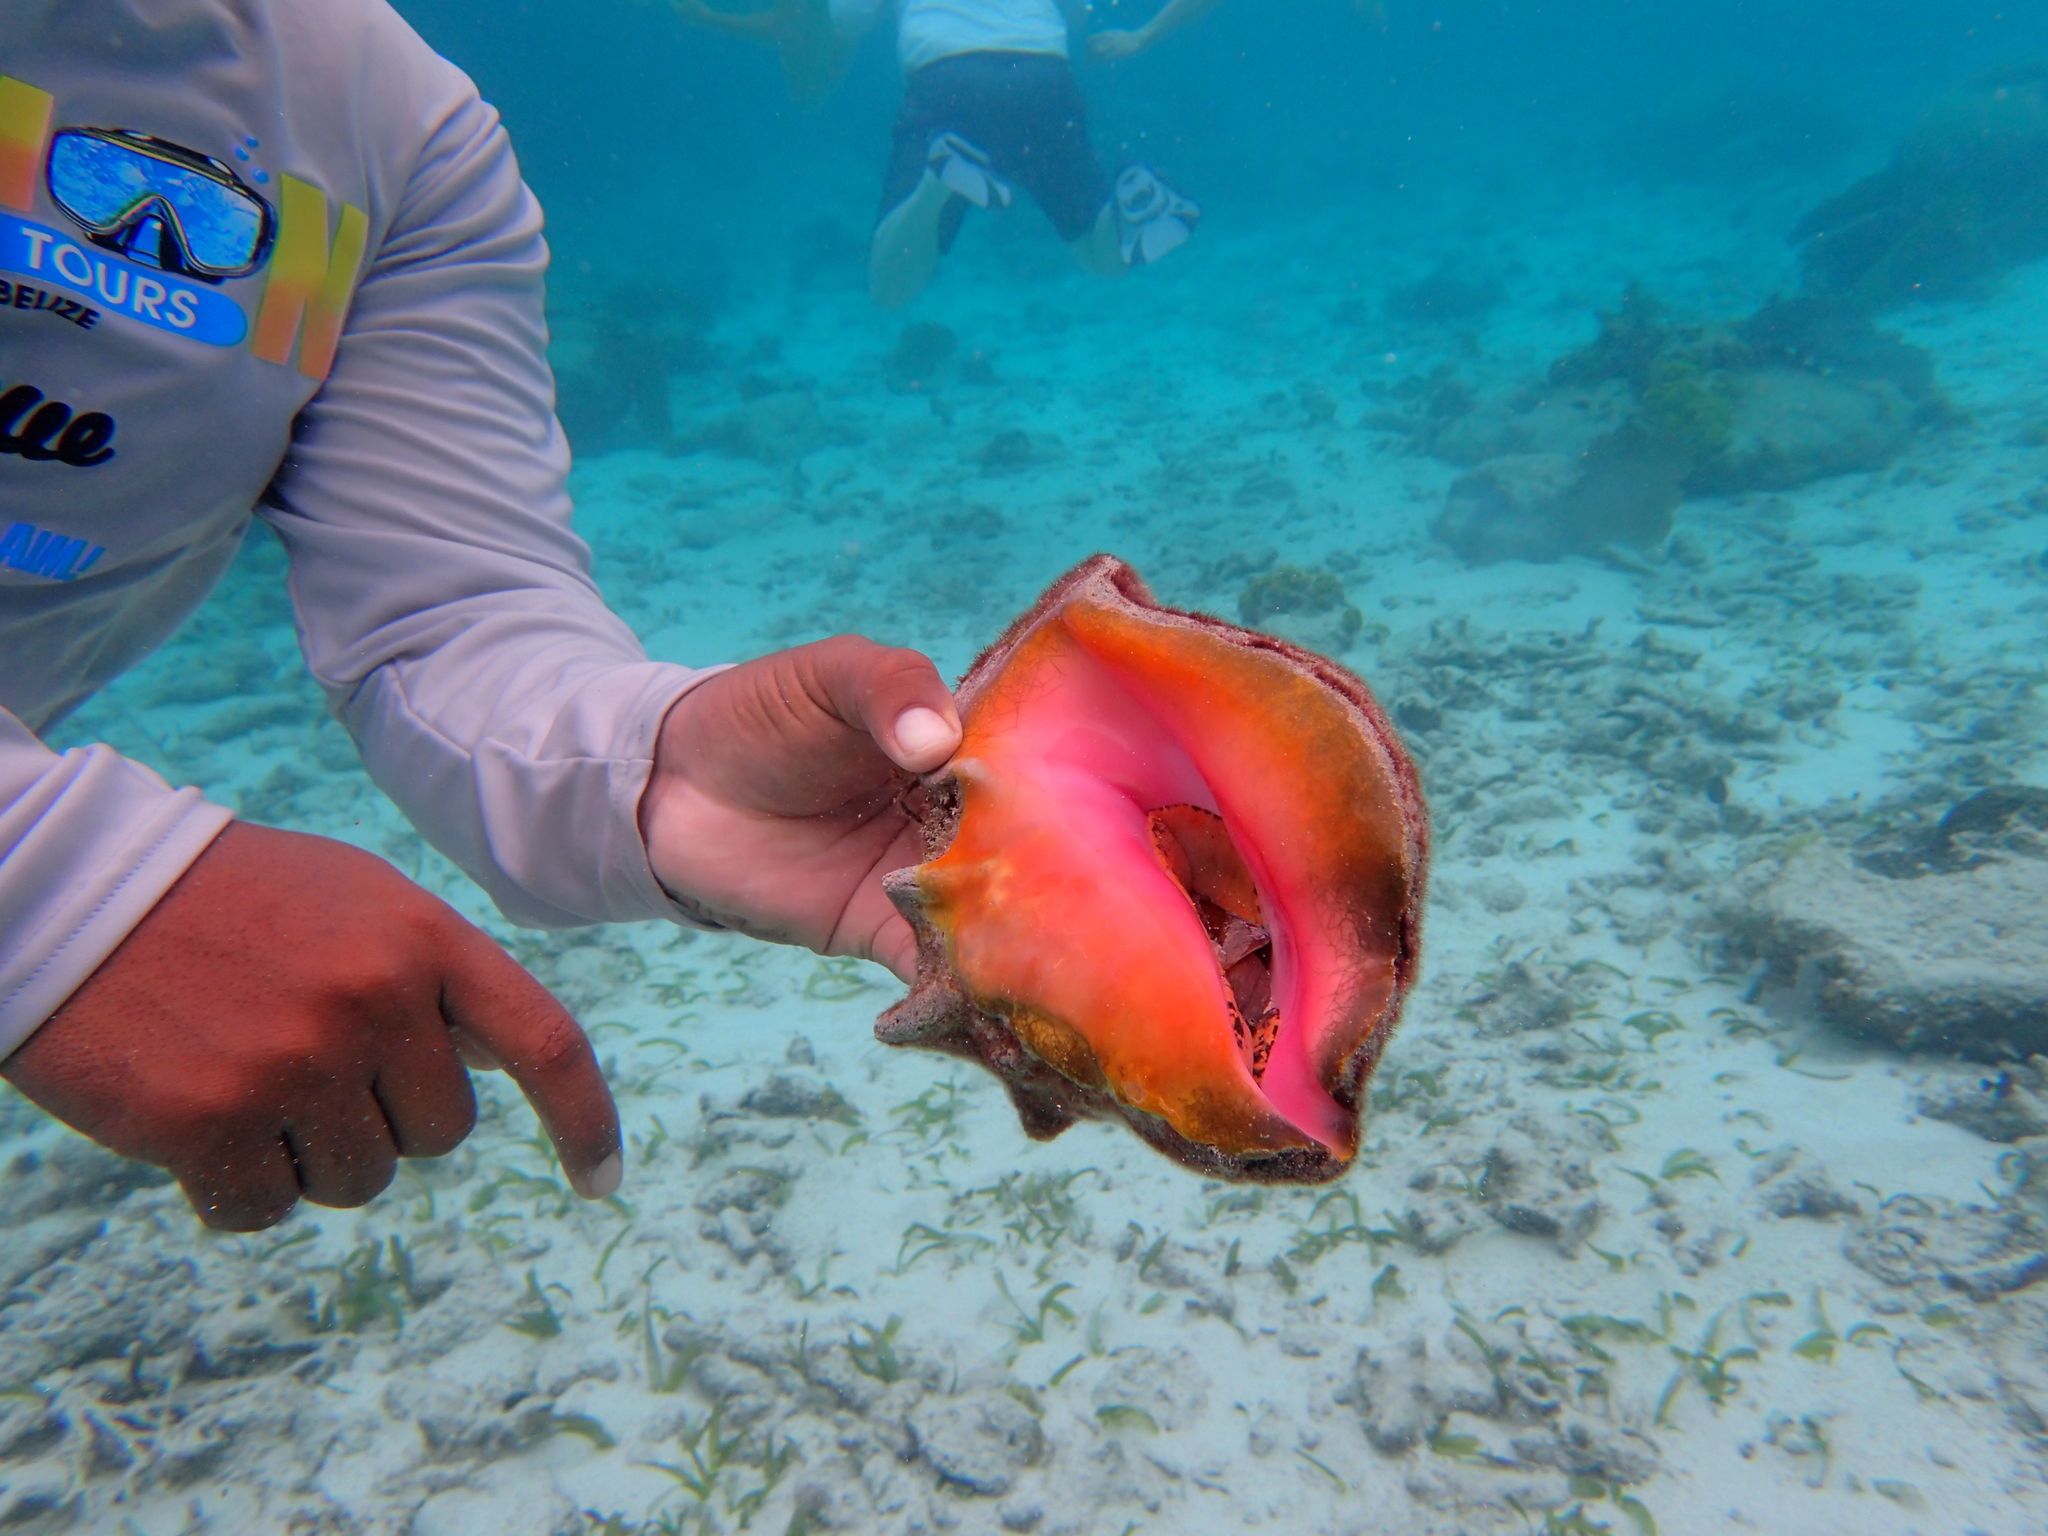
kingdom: Animalia
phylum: Mollusca
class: Gastropoda
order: Littorinimorpha
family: Strombidae
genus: Aliger
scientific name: Aliger gigas
